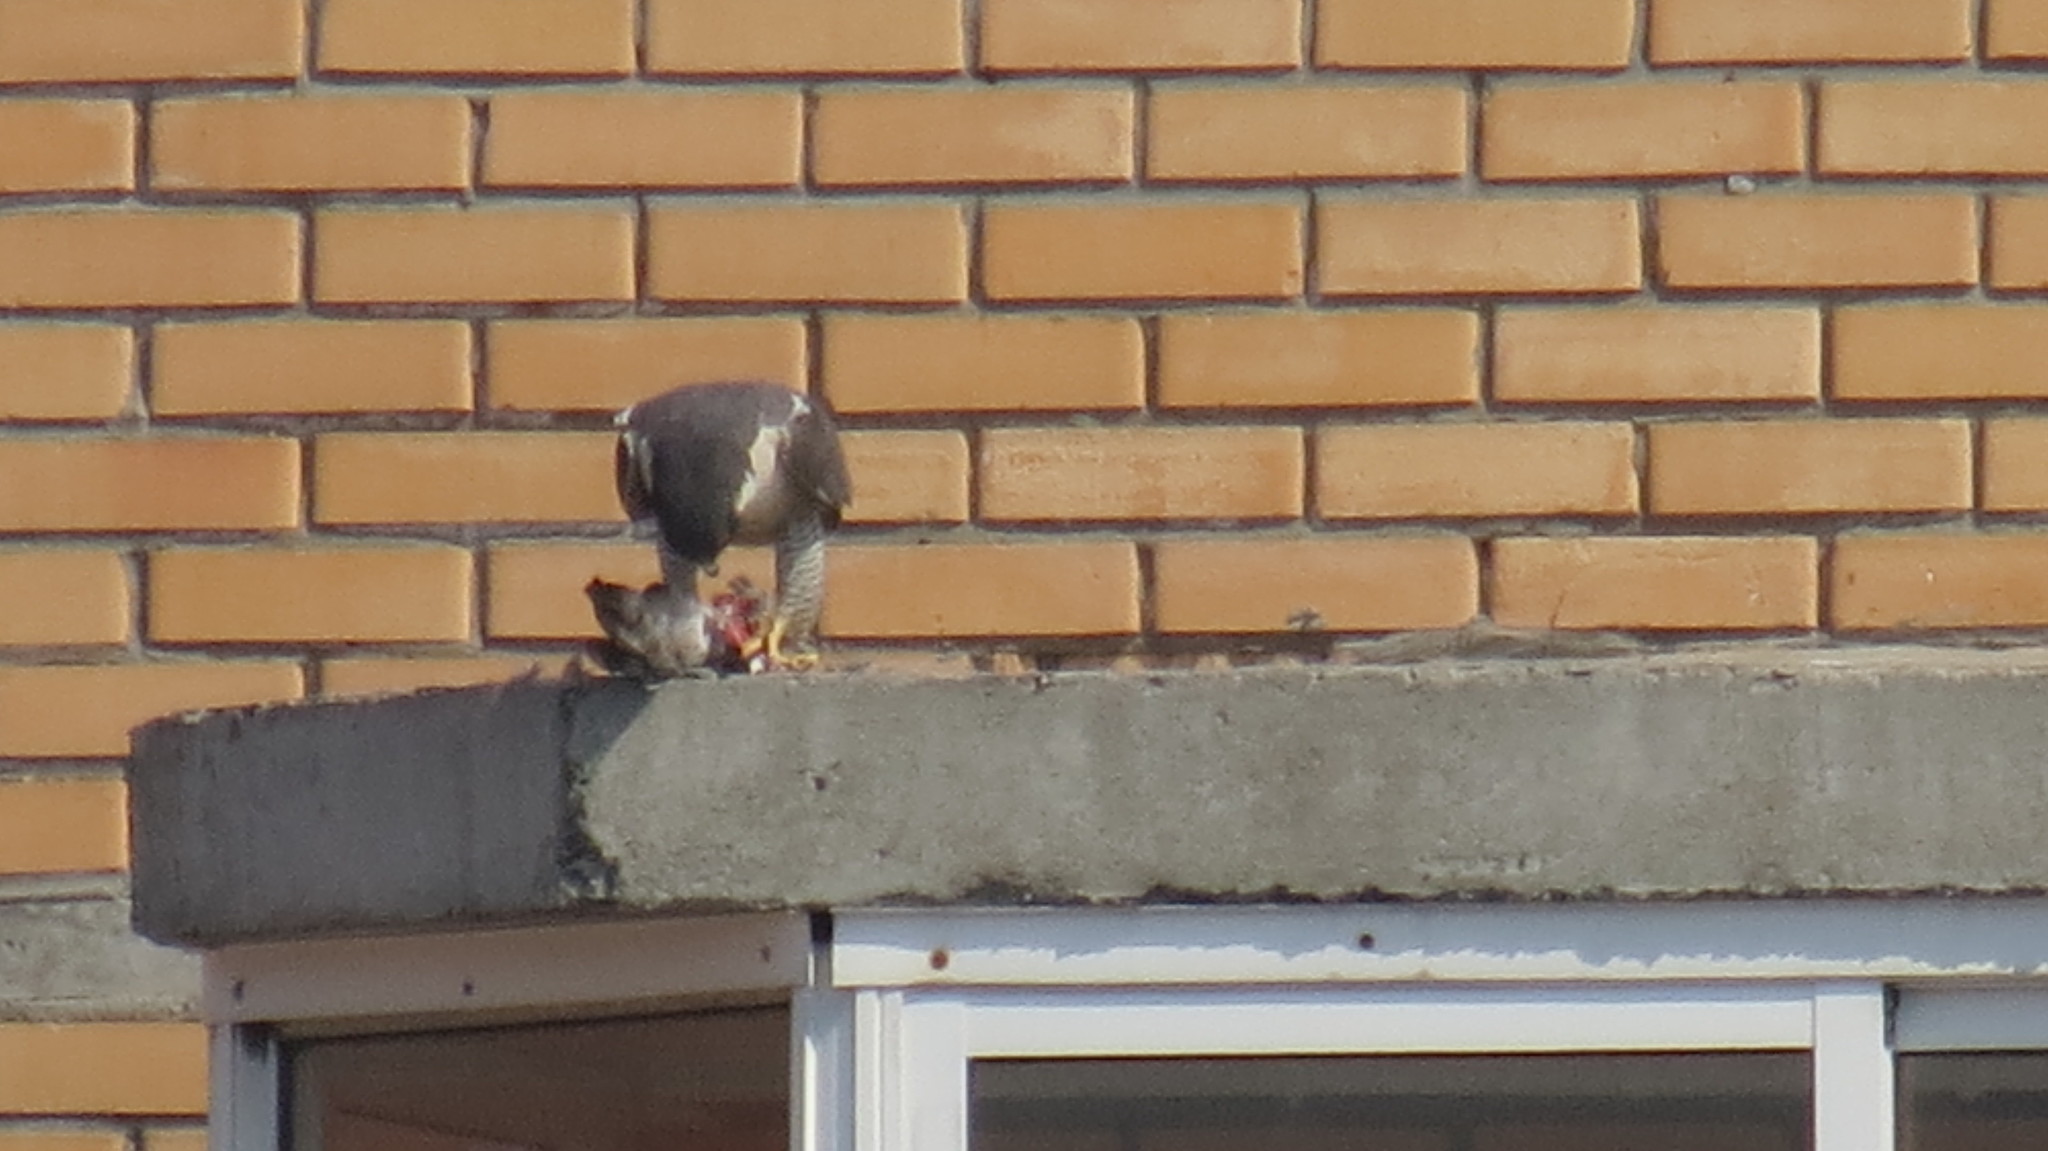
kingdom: Animalia
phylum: Chordata
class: Aves
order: Falconiformes
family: Falconidae
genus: Falco
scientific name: Falco peregrinus
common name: Peregrine falcon
